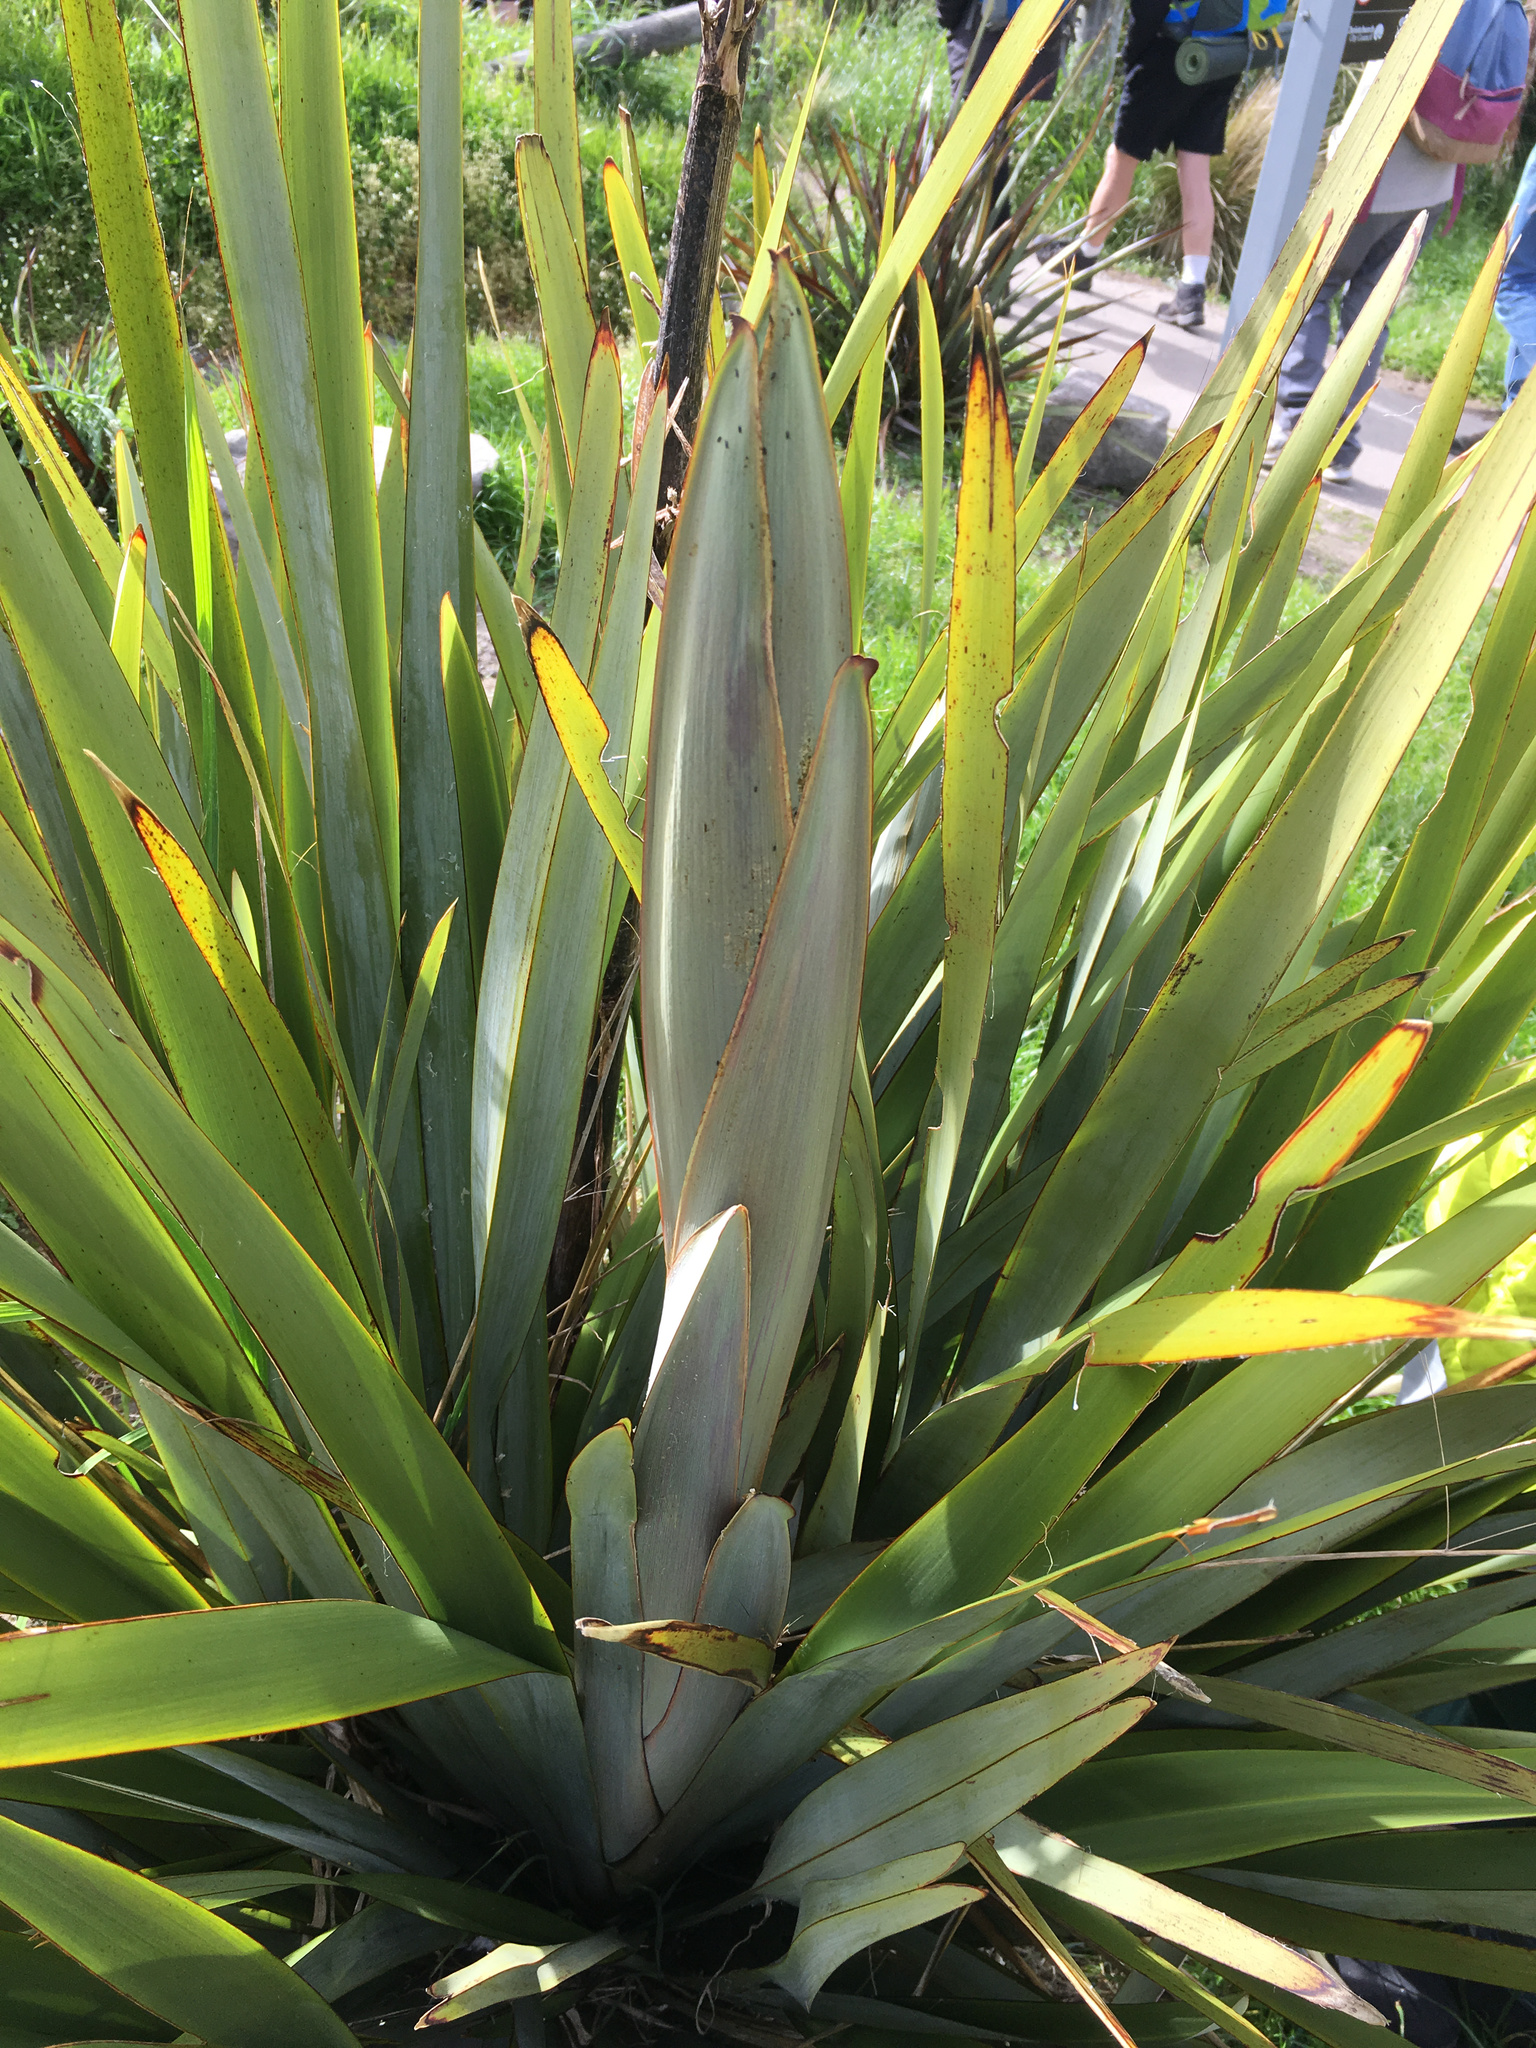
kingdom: Plantae
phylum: Tracheophyta
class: Liliopsida
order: Asparagales
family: Asphodelaceae
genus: Phormium
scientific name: Phormium tenax
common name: New zealand flax
